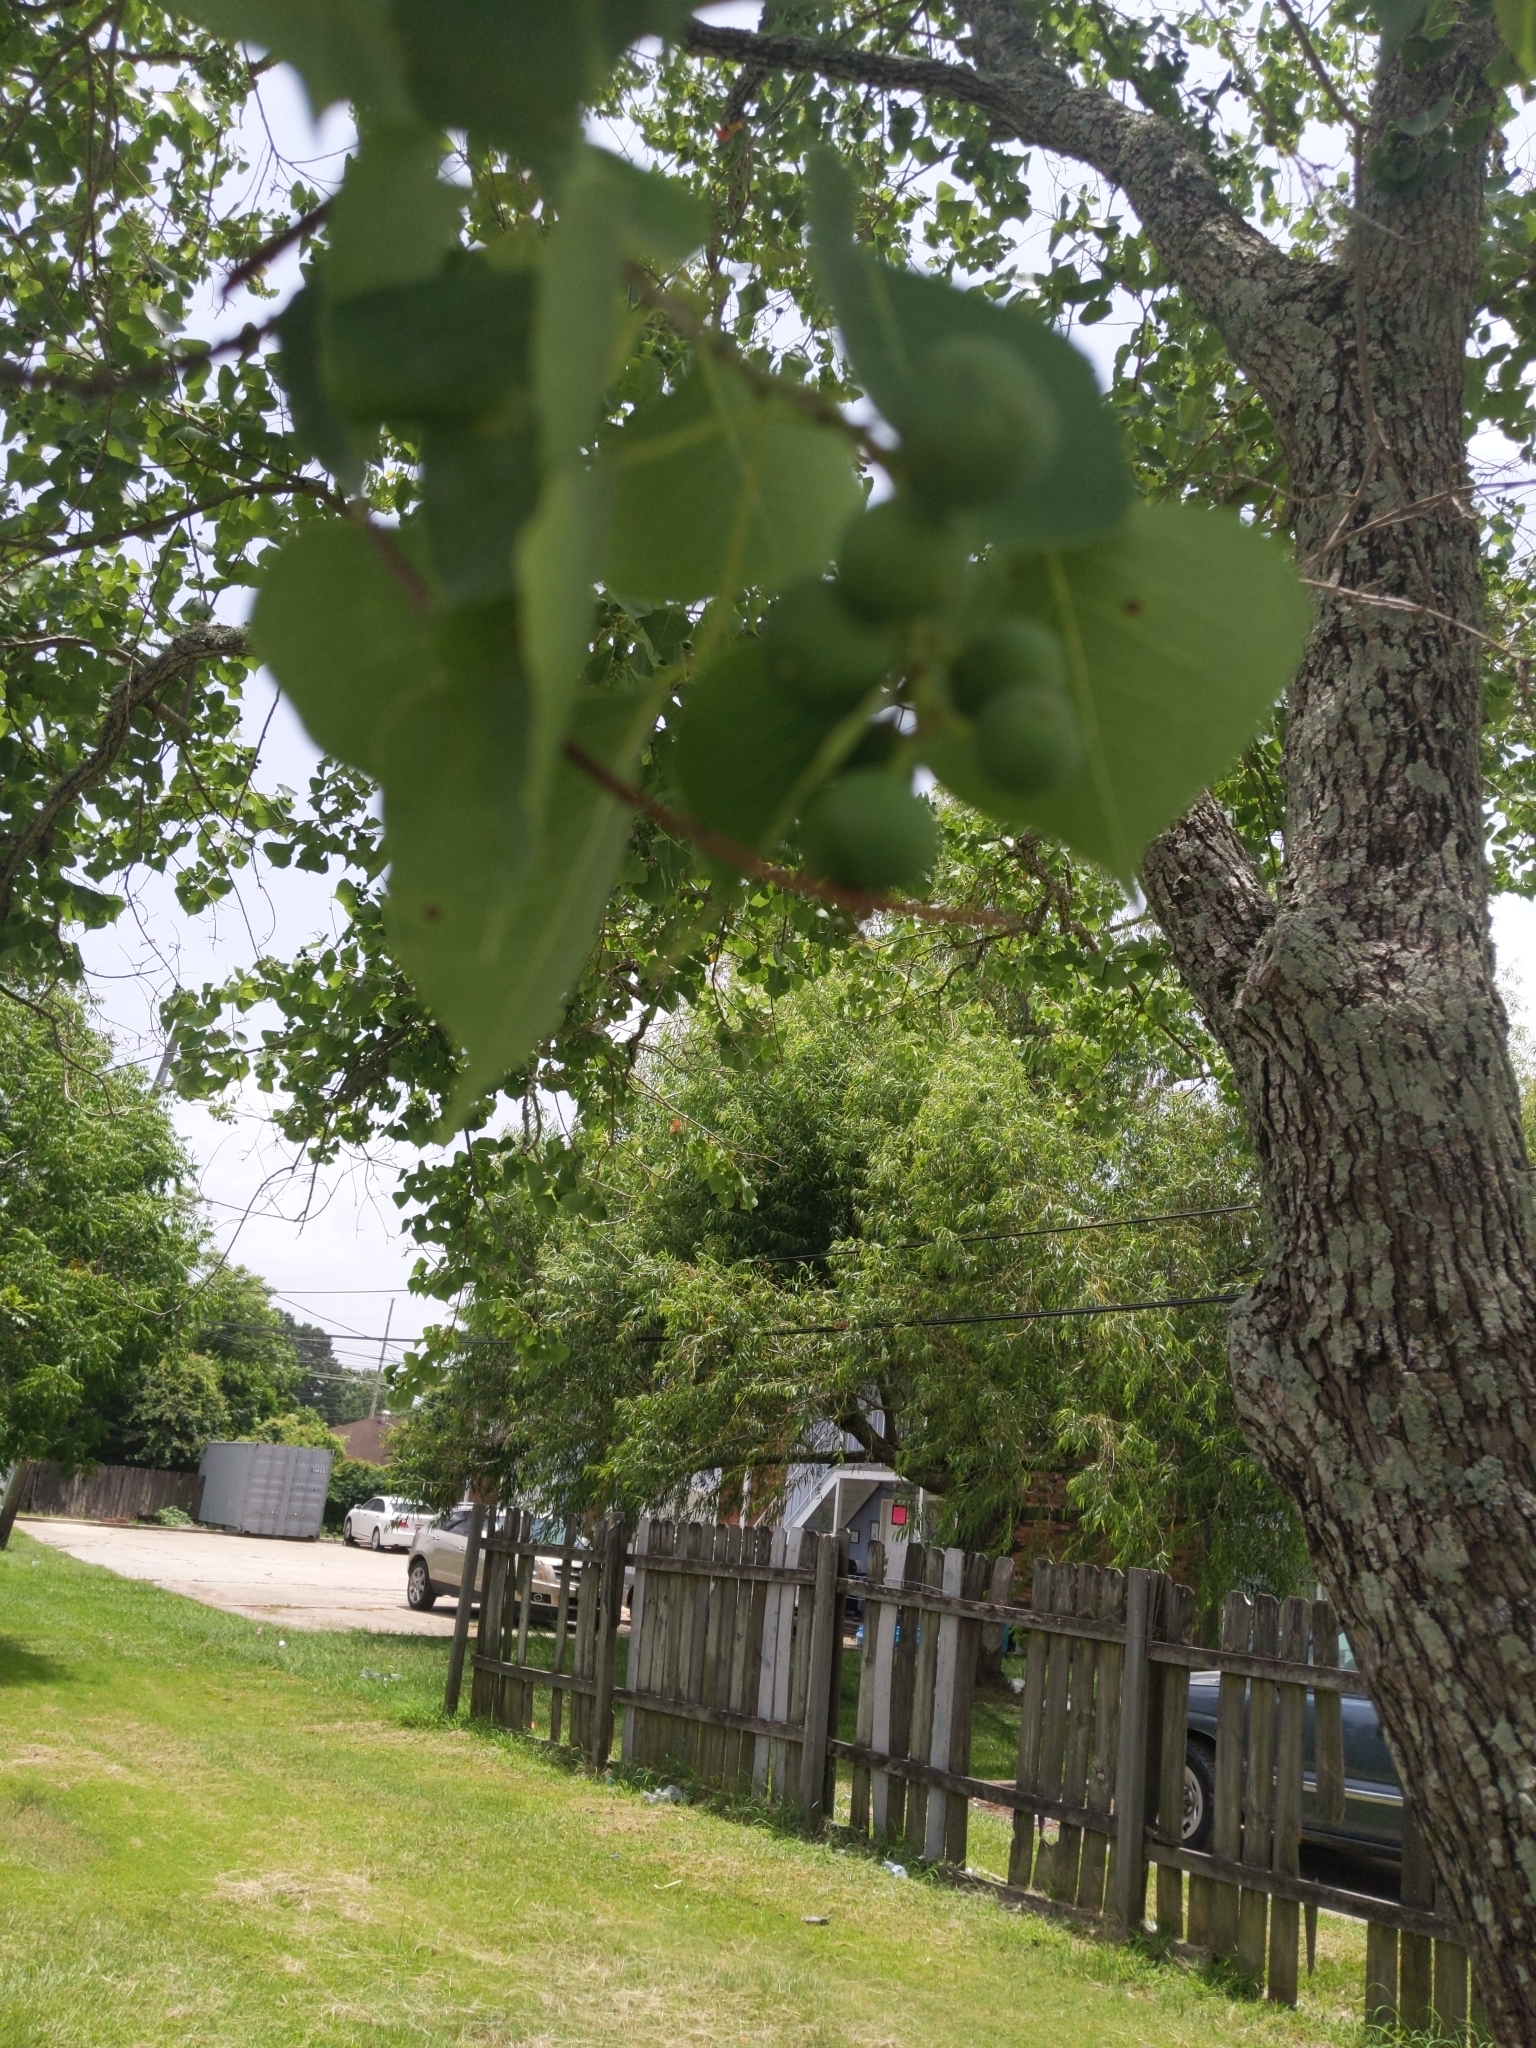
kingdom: Plantae
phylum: Tracheophyta
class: Magnoliopsida
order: Malpighiales
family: Euphorbiaceae
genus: Triadica
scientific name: Triadica sebifera
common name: Chinese tallow
